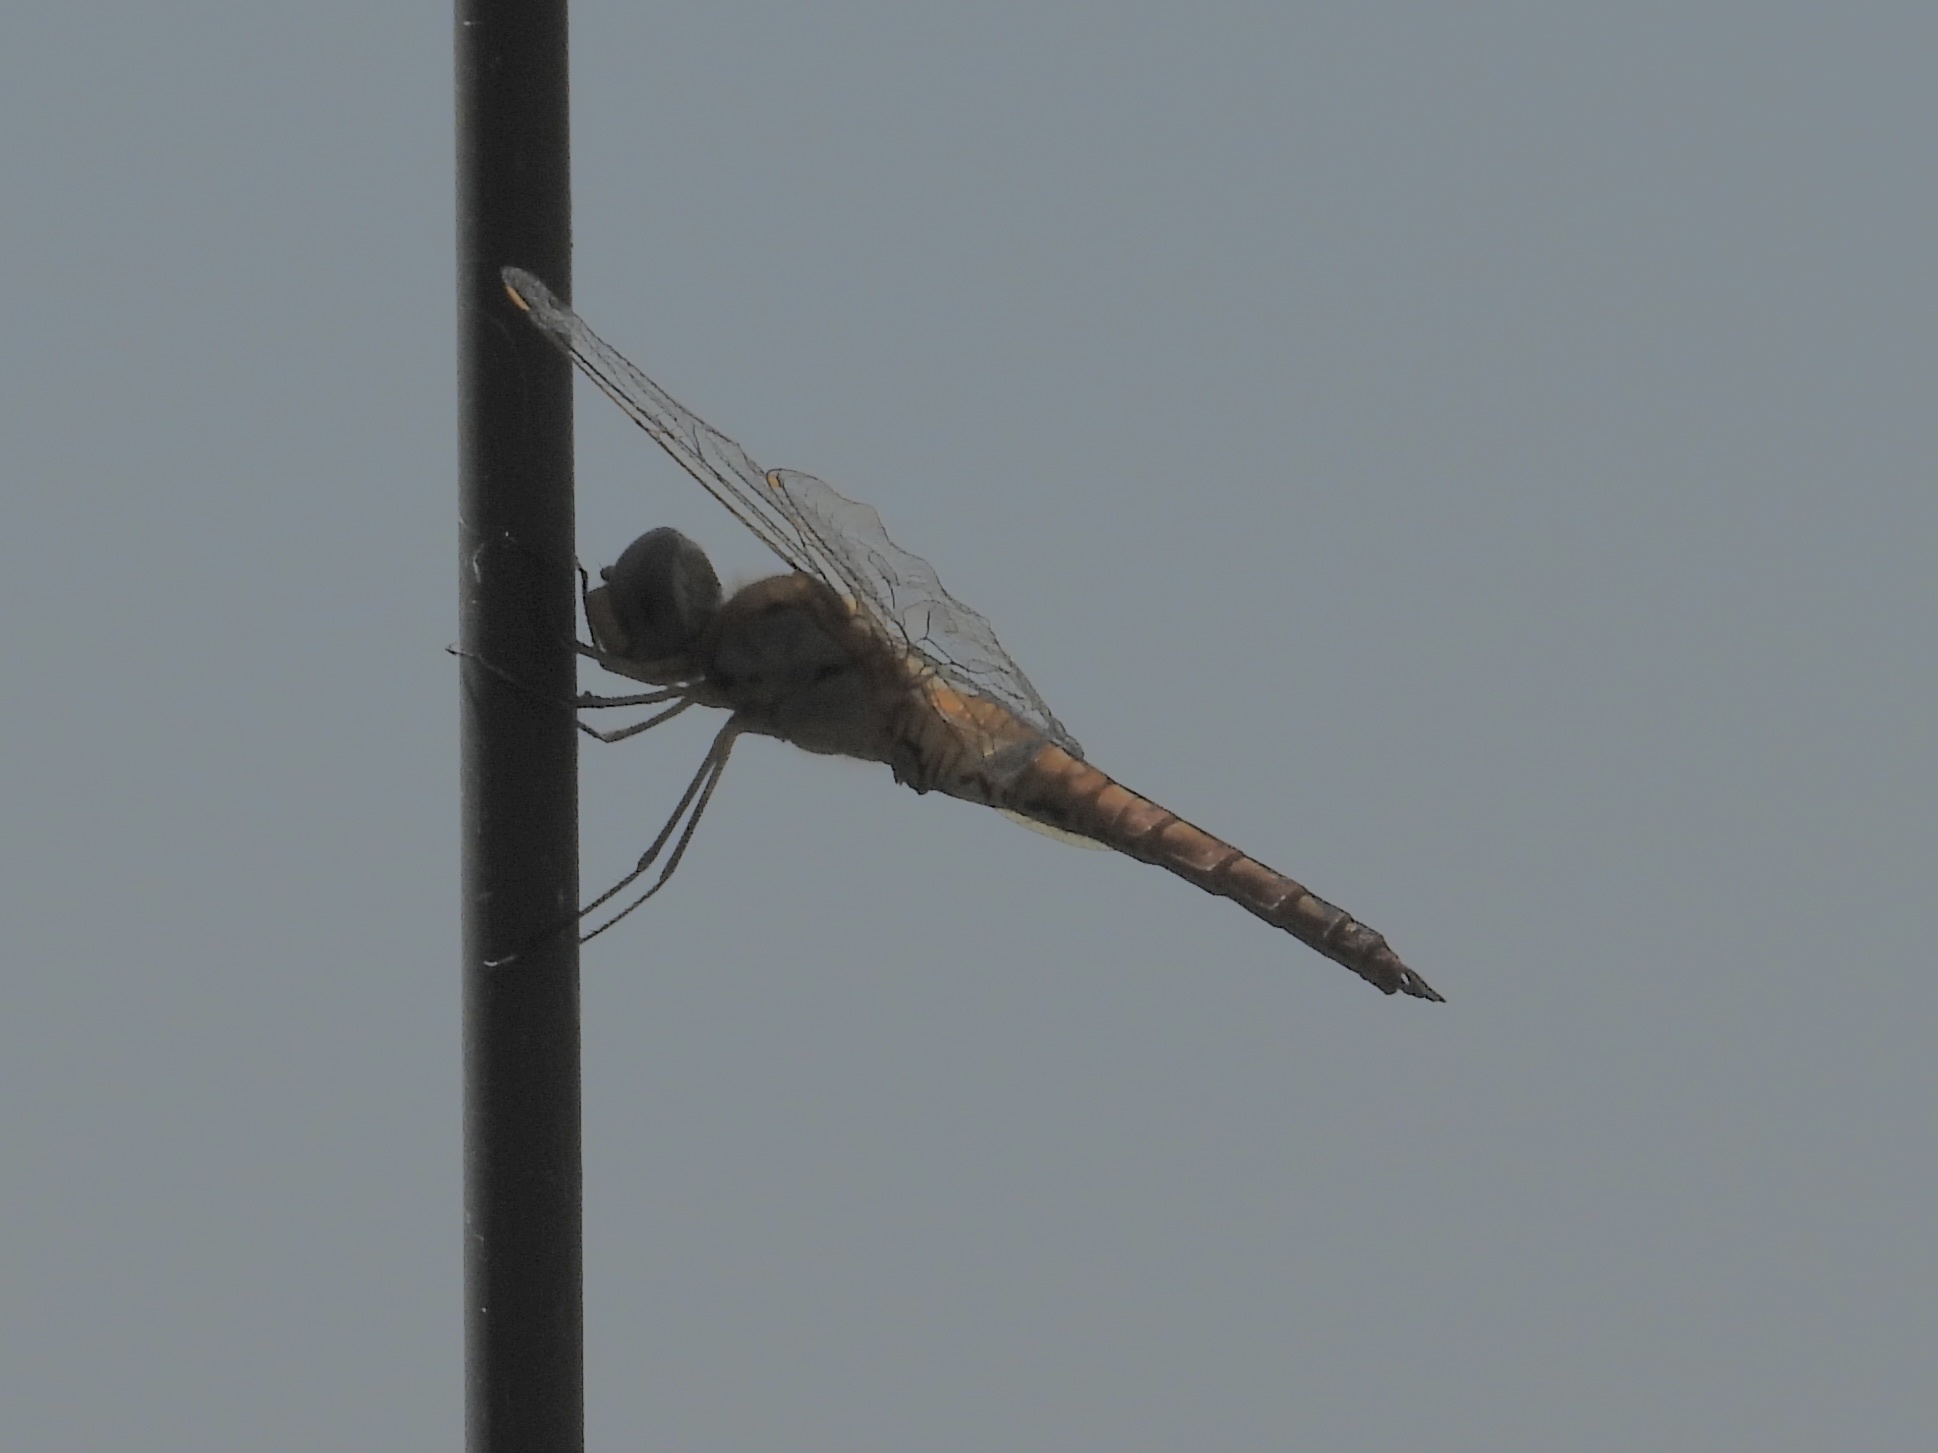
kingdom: Animalia
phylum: Arthropoda
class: Insecta
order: Odonata
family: Libellulidae
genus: Pantala
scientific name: Pantala hymenaea
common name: Spot-winged glider
